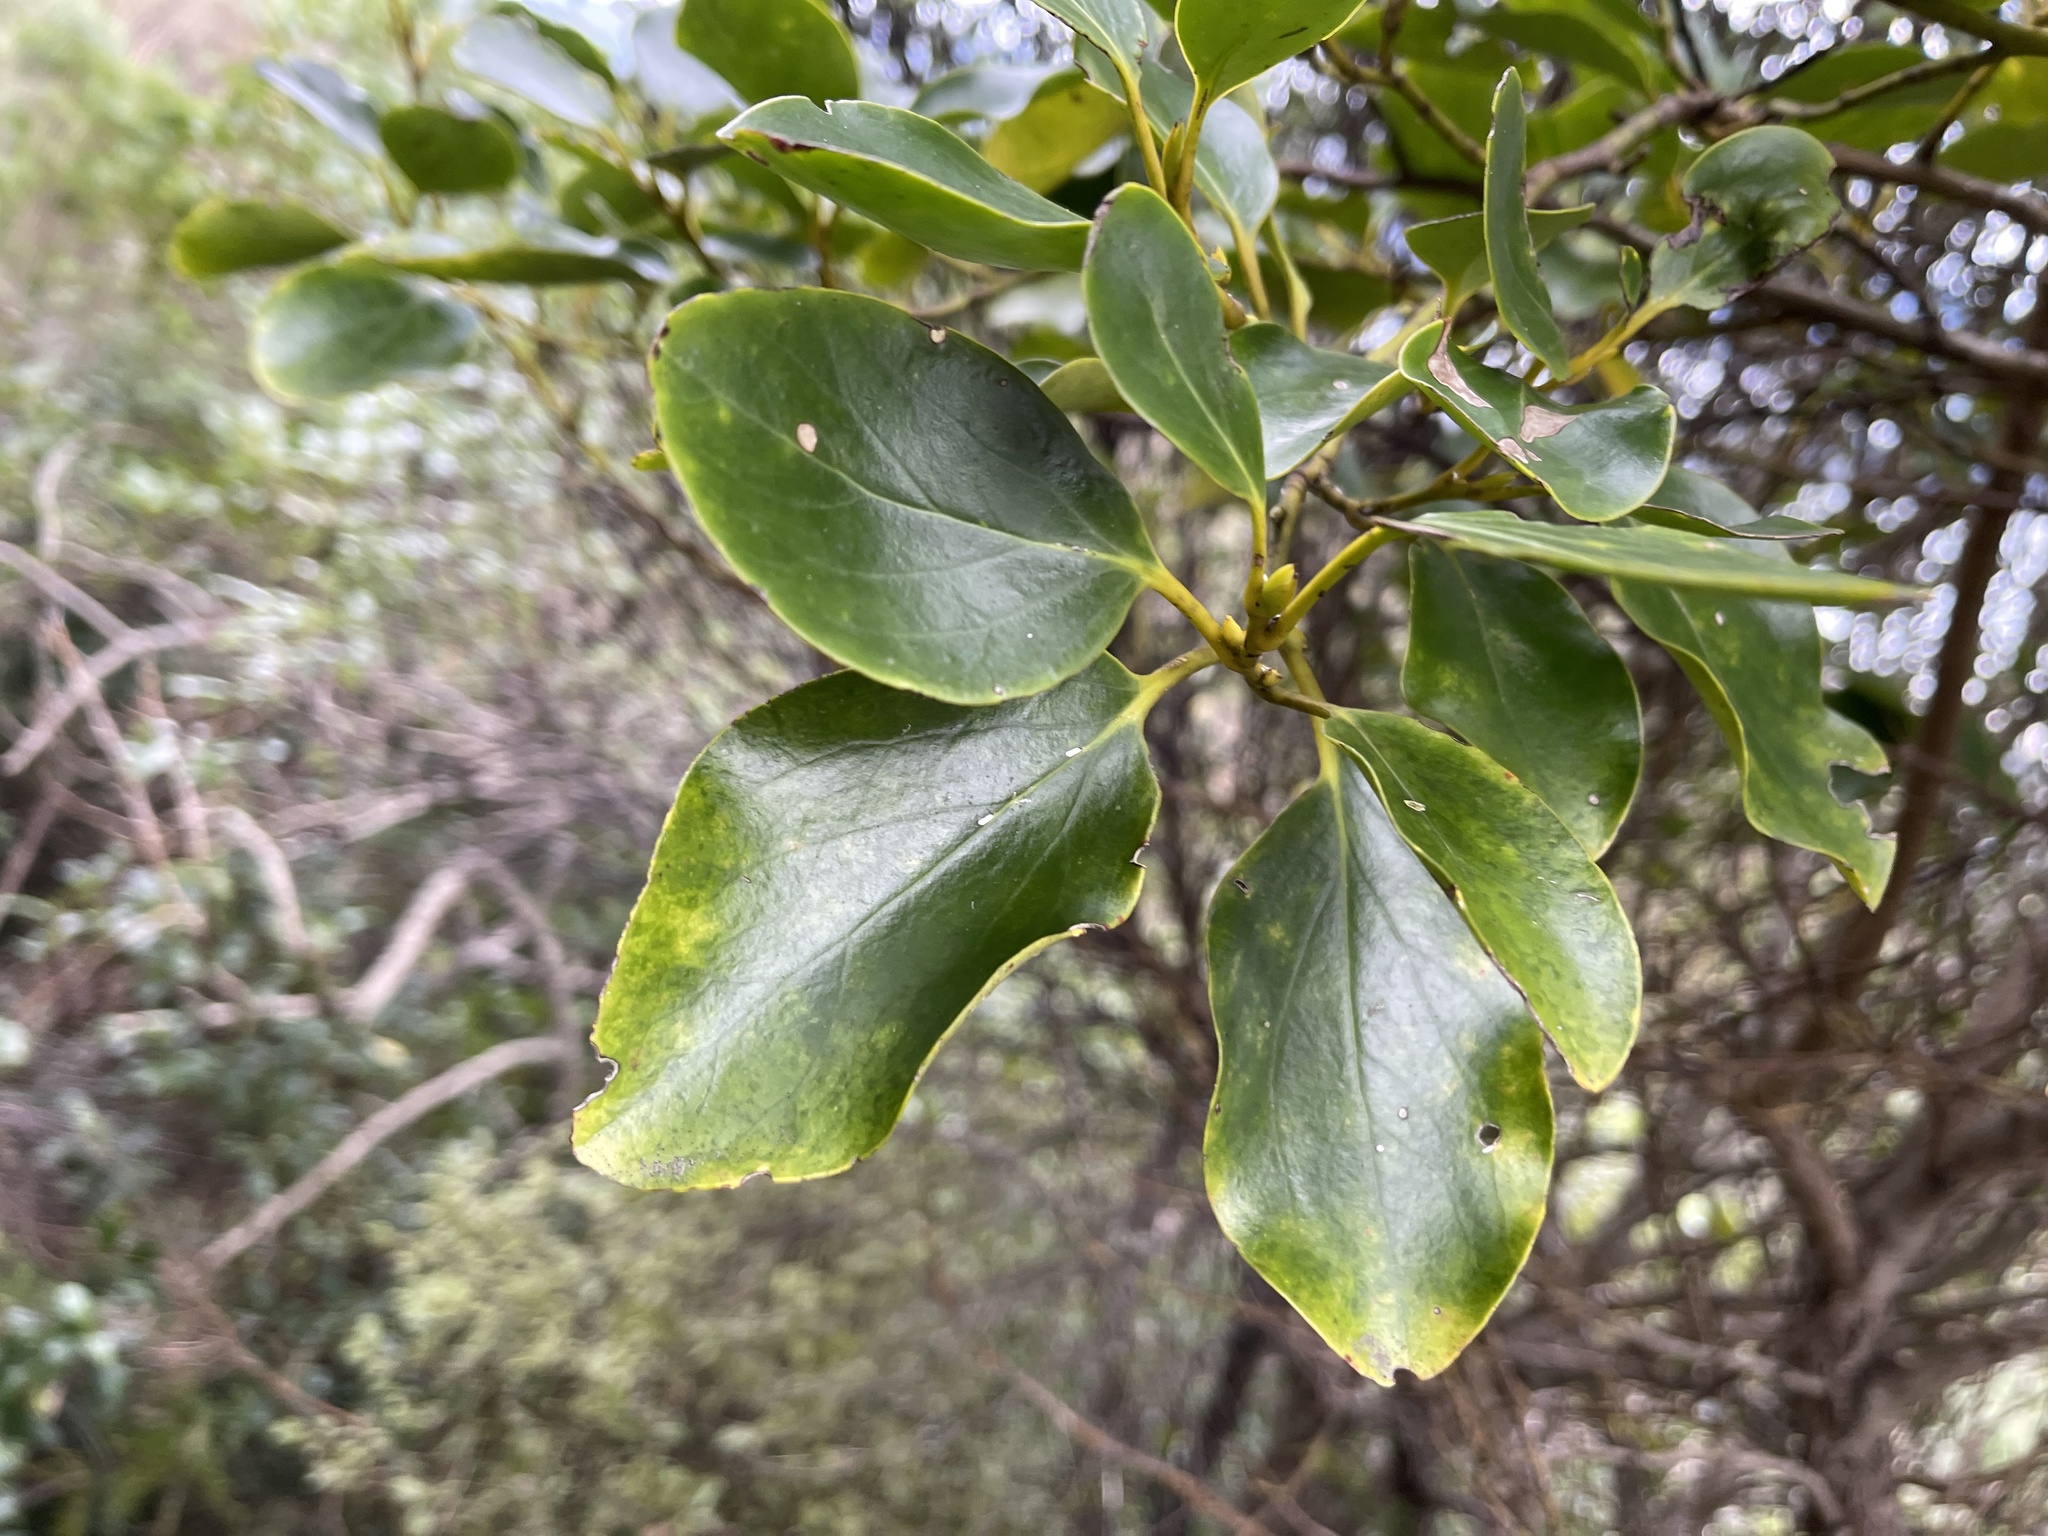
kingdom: Plantae
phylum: Tracheophyta
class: Magnoliopsida
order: Apiales
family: Griseliniaceae
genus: Griselinia
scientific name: Griselinia littoralis
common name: New zealand broadleaf
